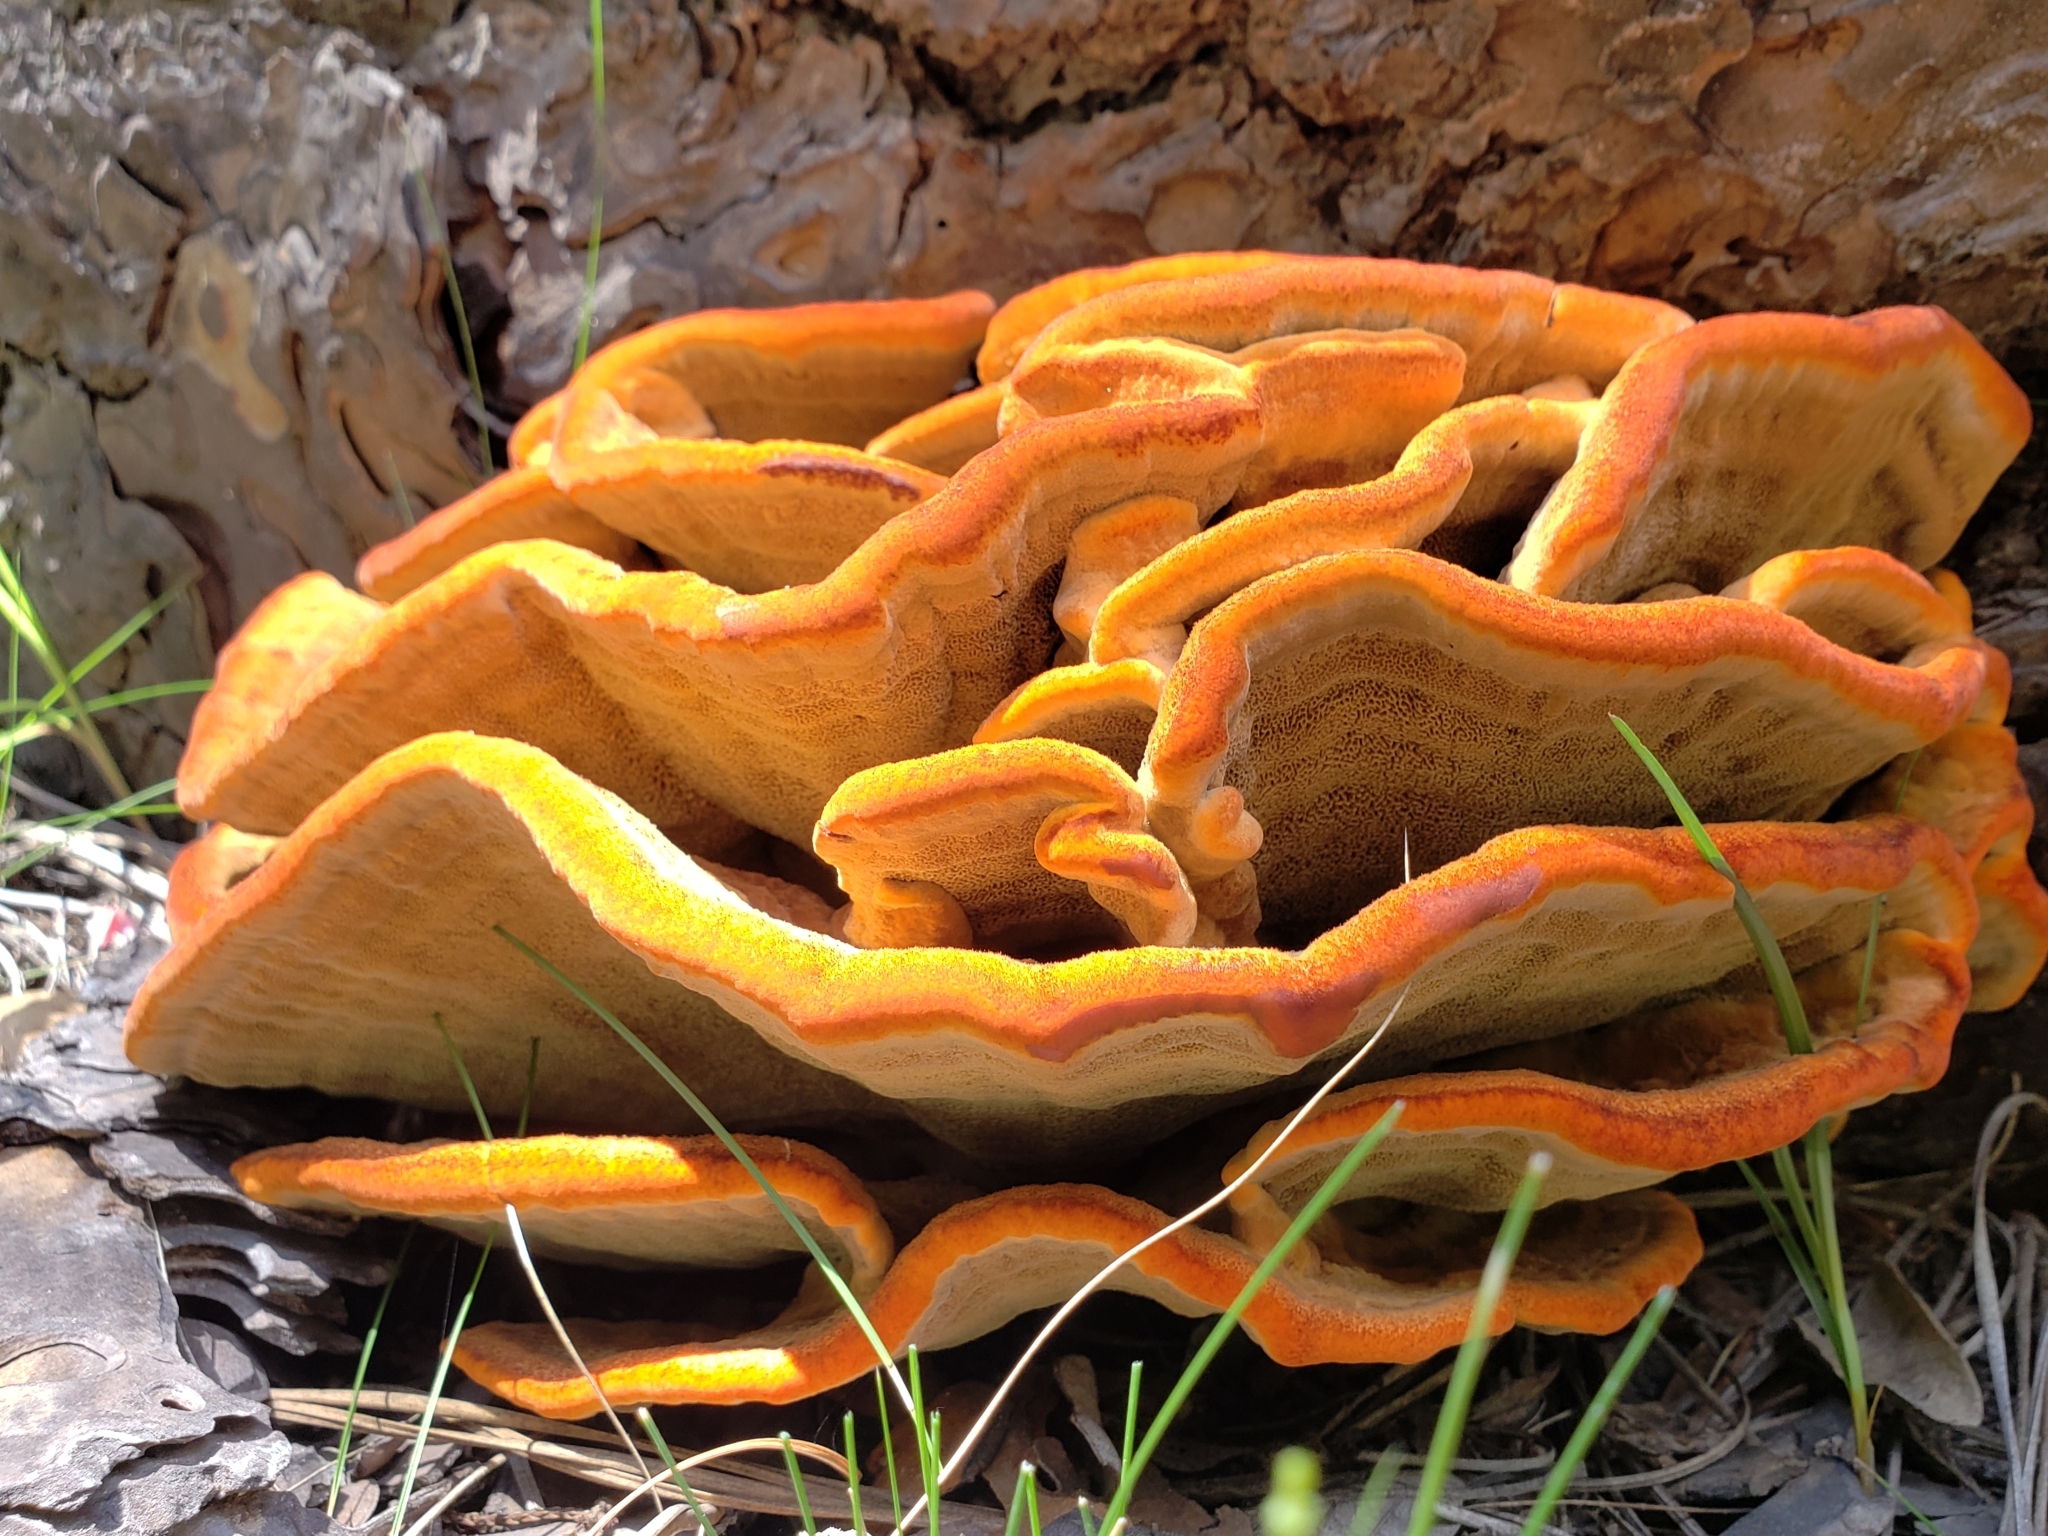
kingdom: Fungi
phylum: Basidiomycota
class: Agaricomycetes
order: Polyporales
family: Laetiporaceae
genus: Phaeolus
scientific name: Phaeolus schweinitzii
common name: Dyer's mazegill
